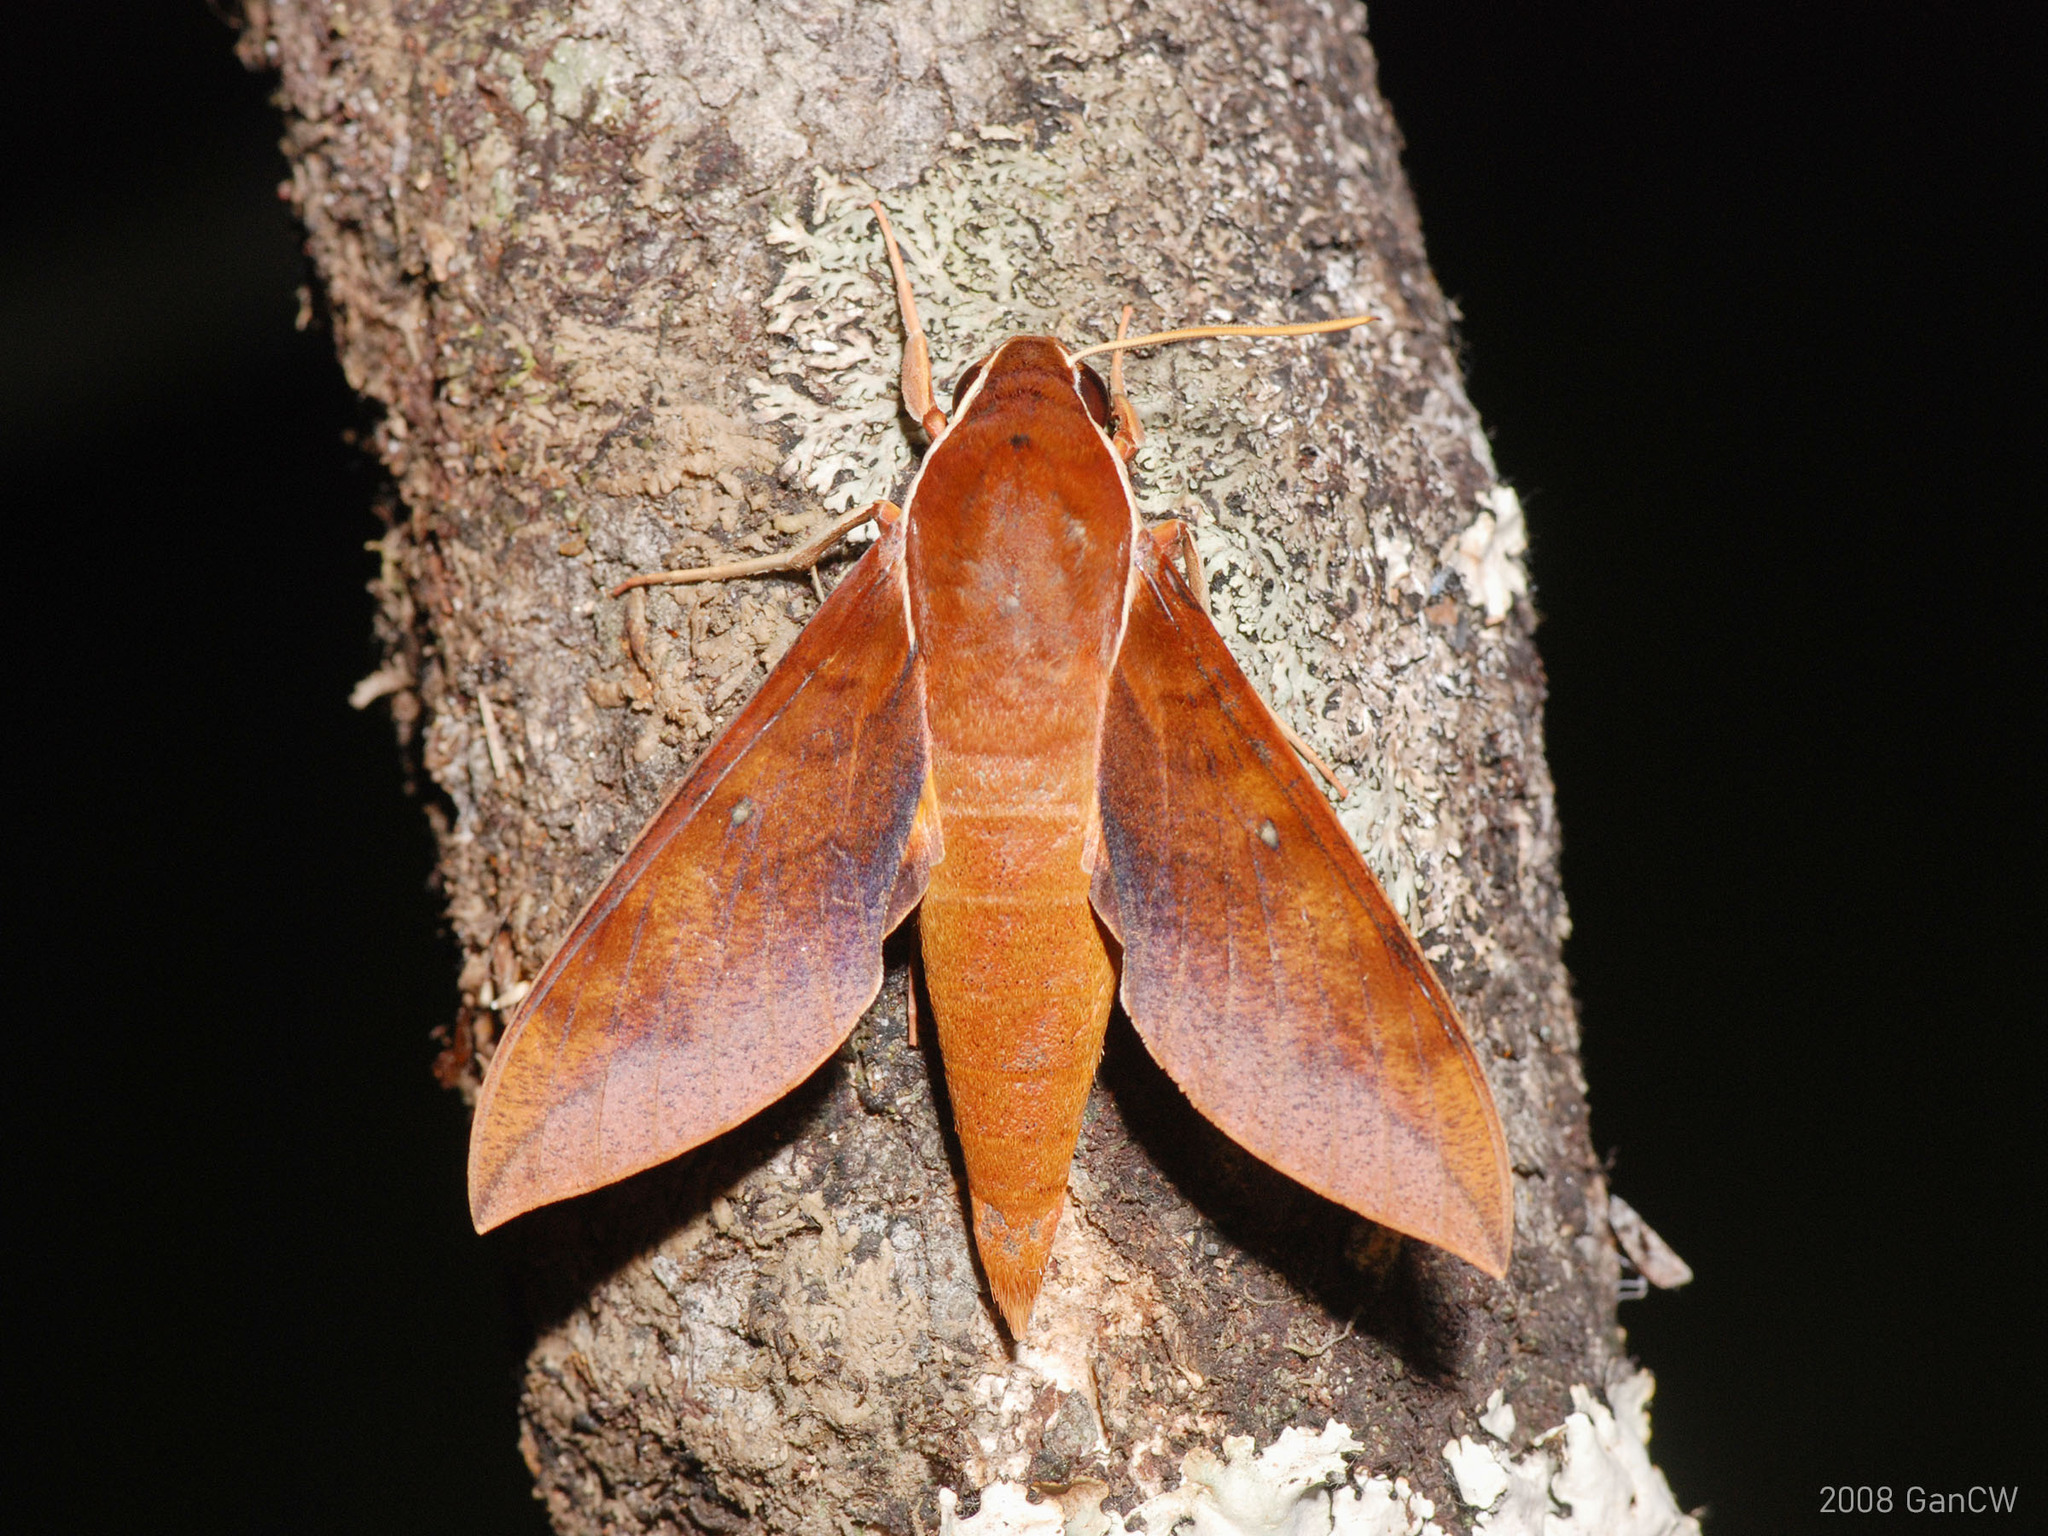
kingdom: Animalia
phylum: Arthropoda
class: Insecta
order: Lepidoptera
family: Sphingidae
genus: Gnathothlibus
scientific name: Gnathothlibus erotus
